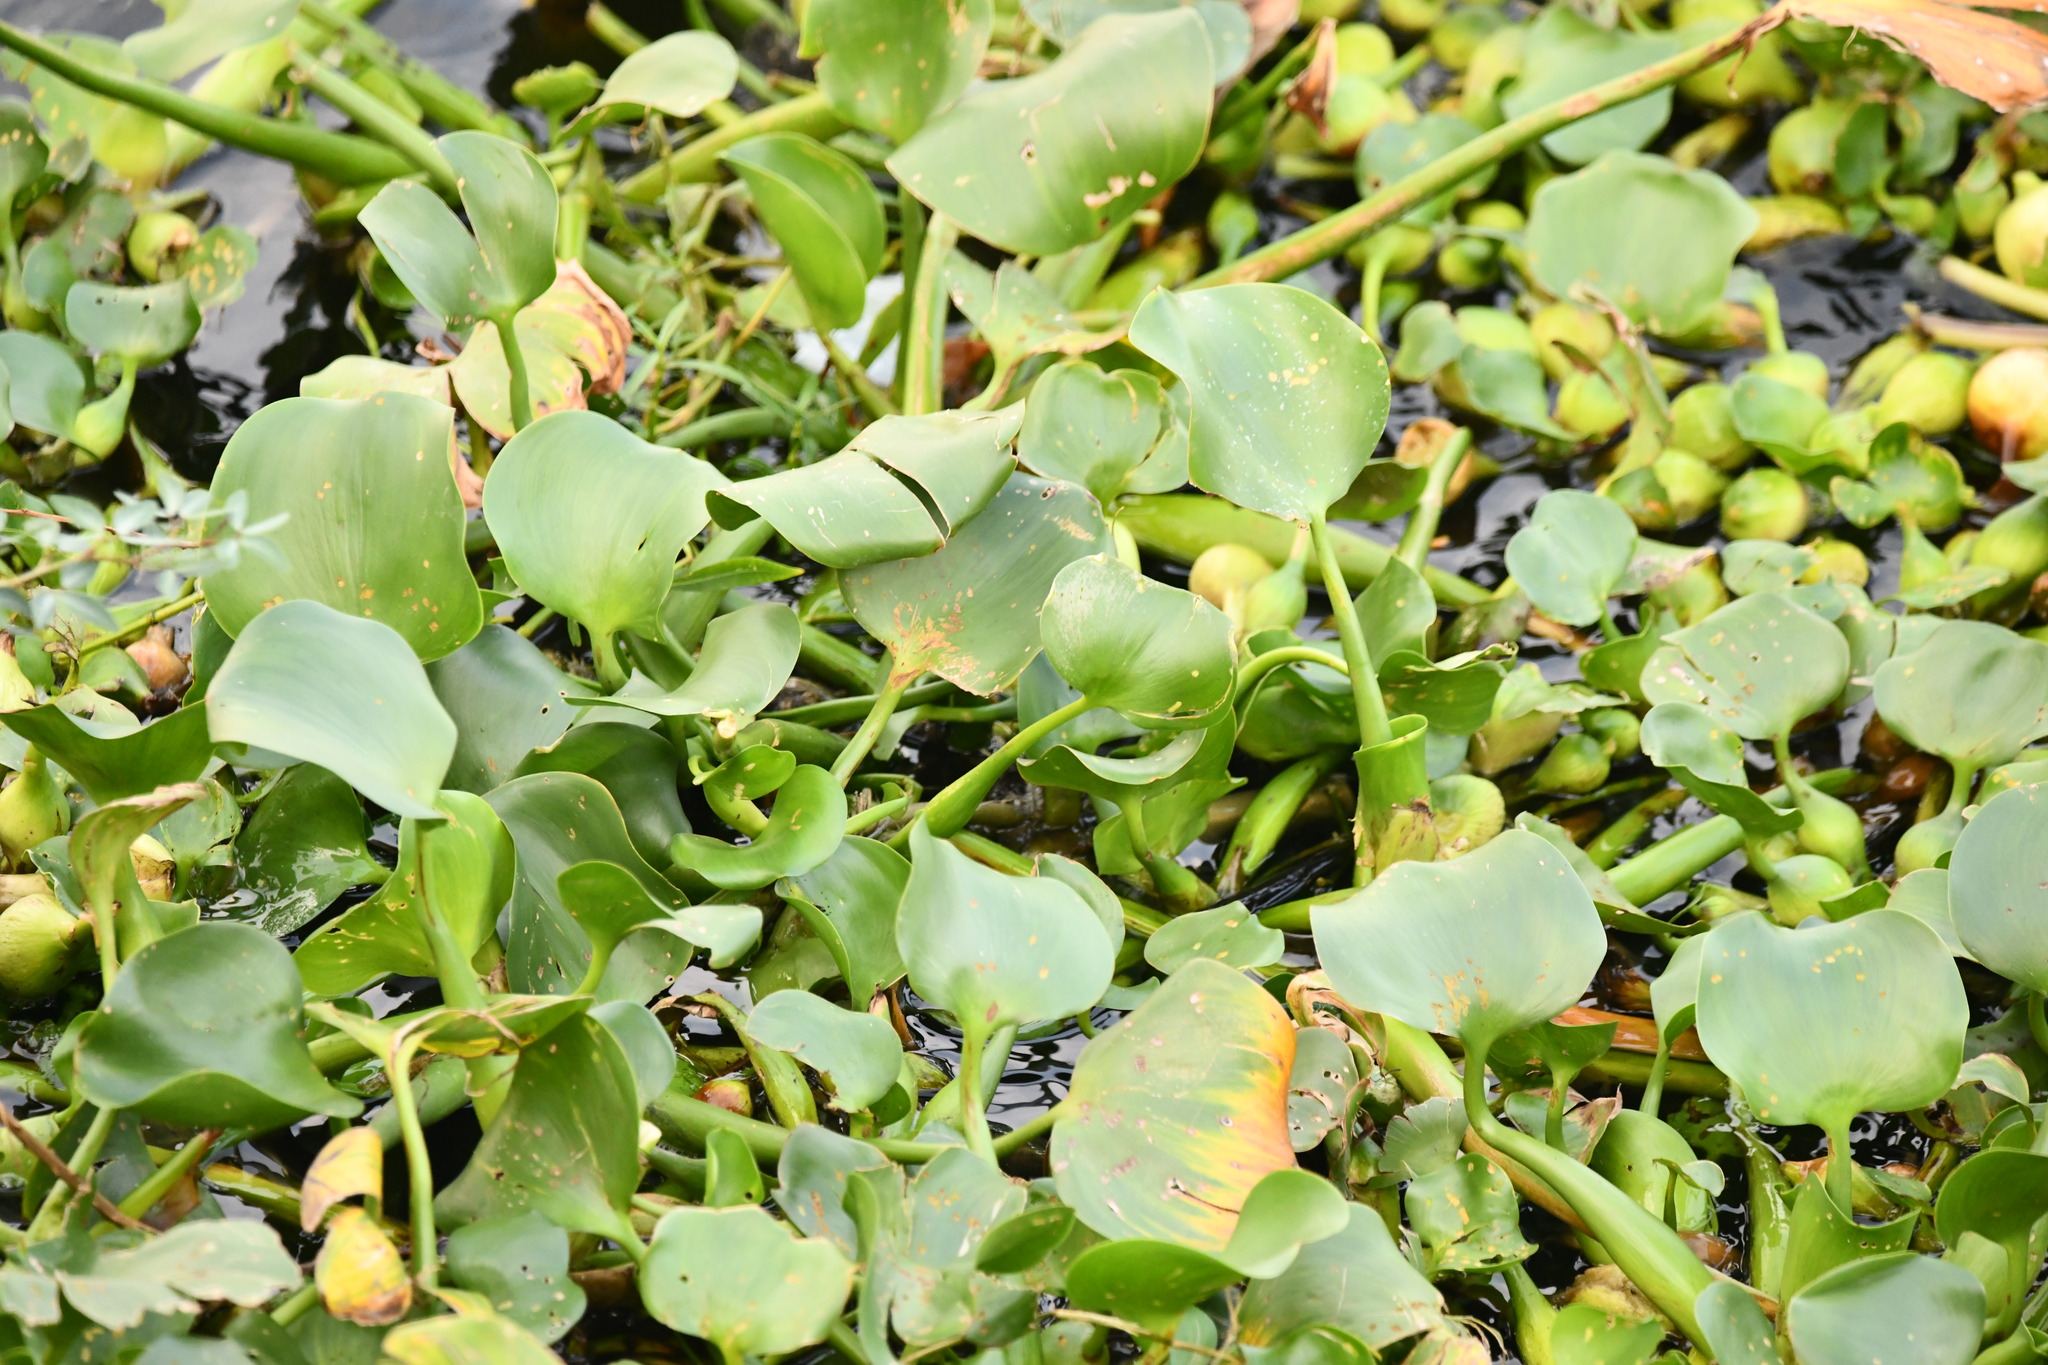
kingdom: Plantae
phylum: Tracheophyta
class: Liliopsida
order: Commelinales
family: Pontederiaceae
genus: Pontederia
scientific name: Pontederia crassipes
